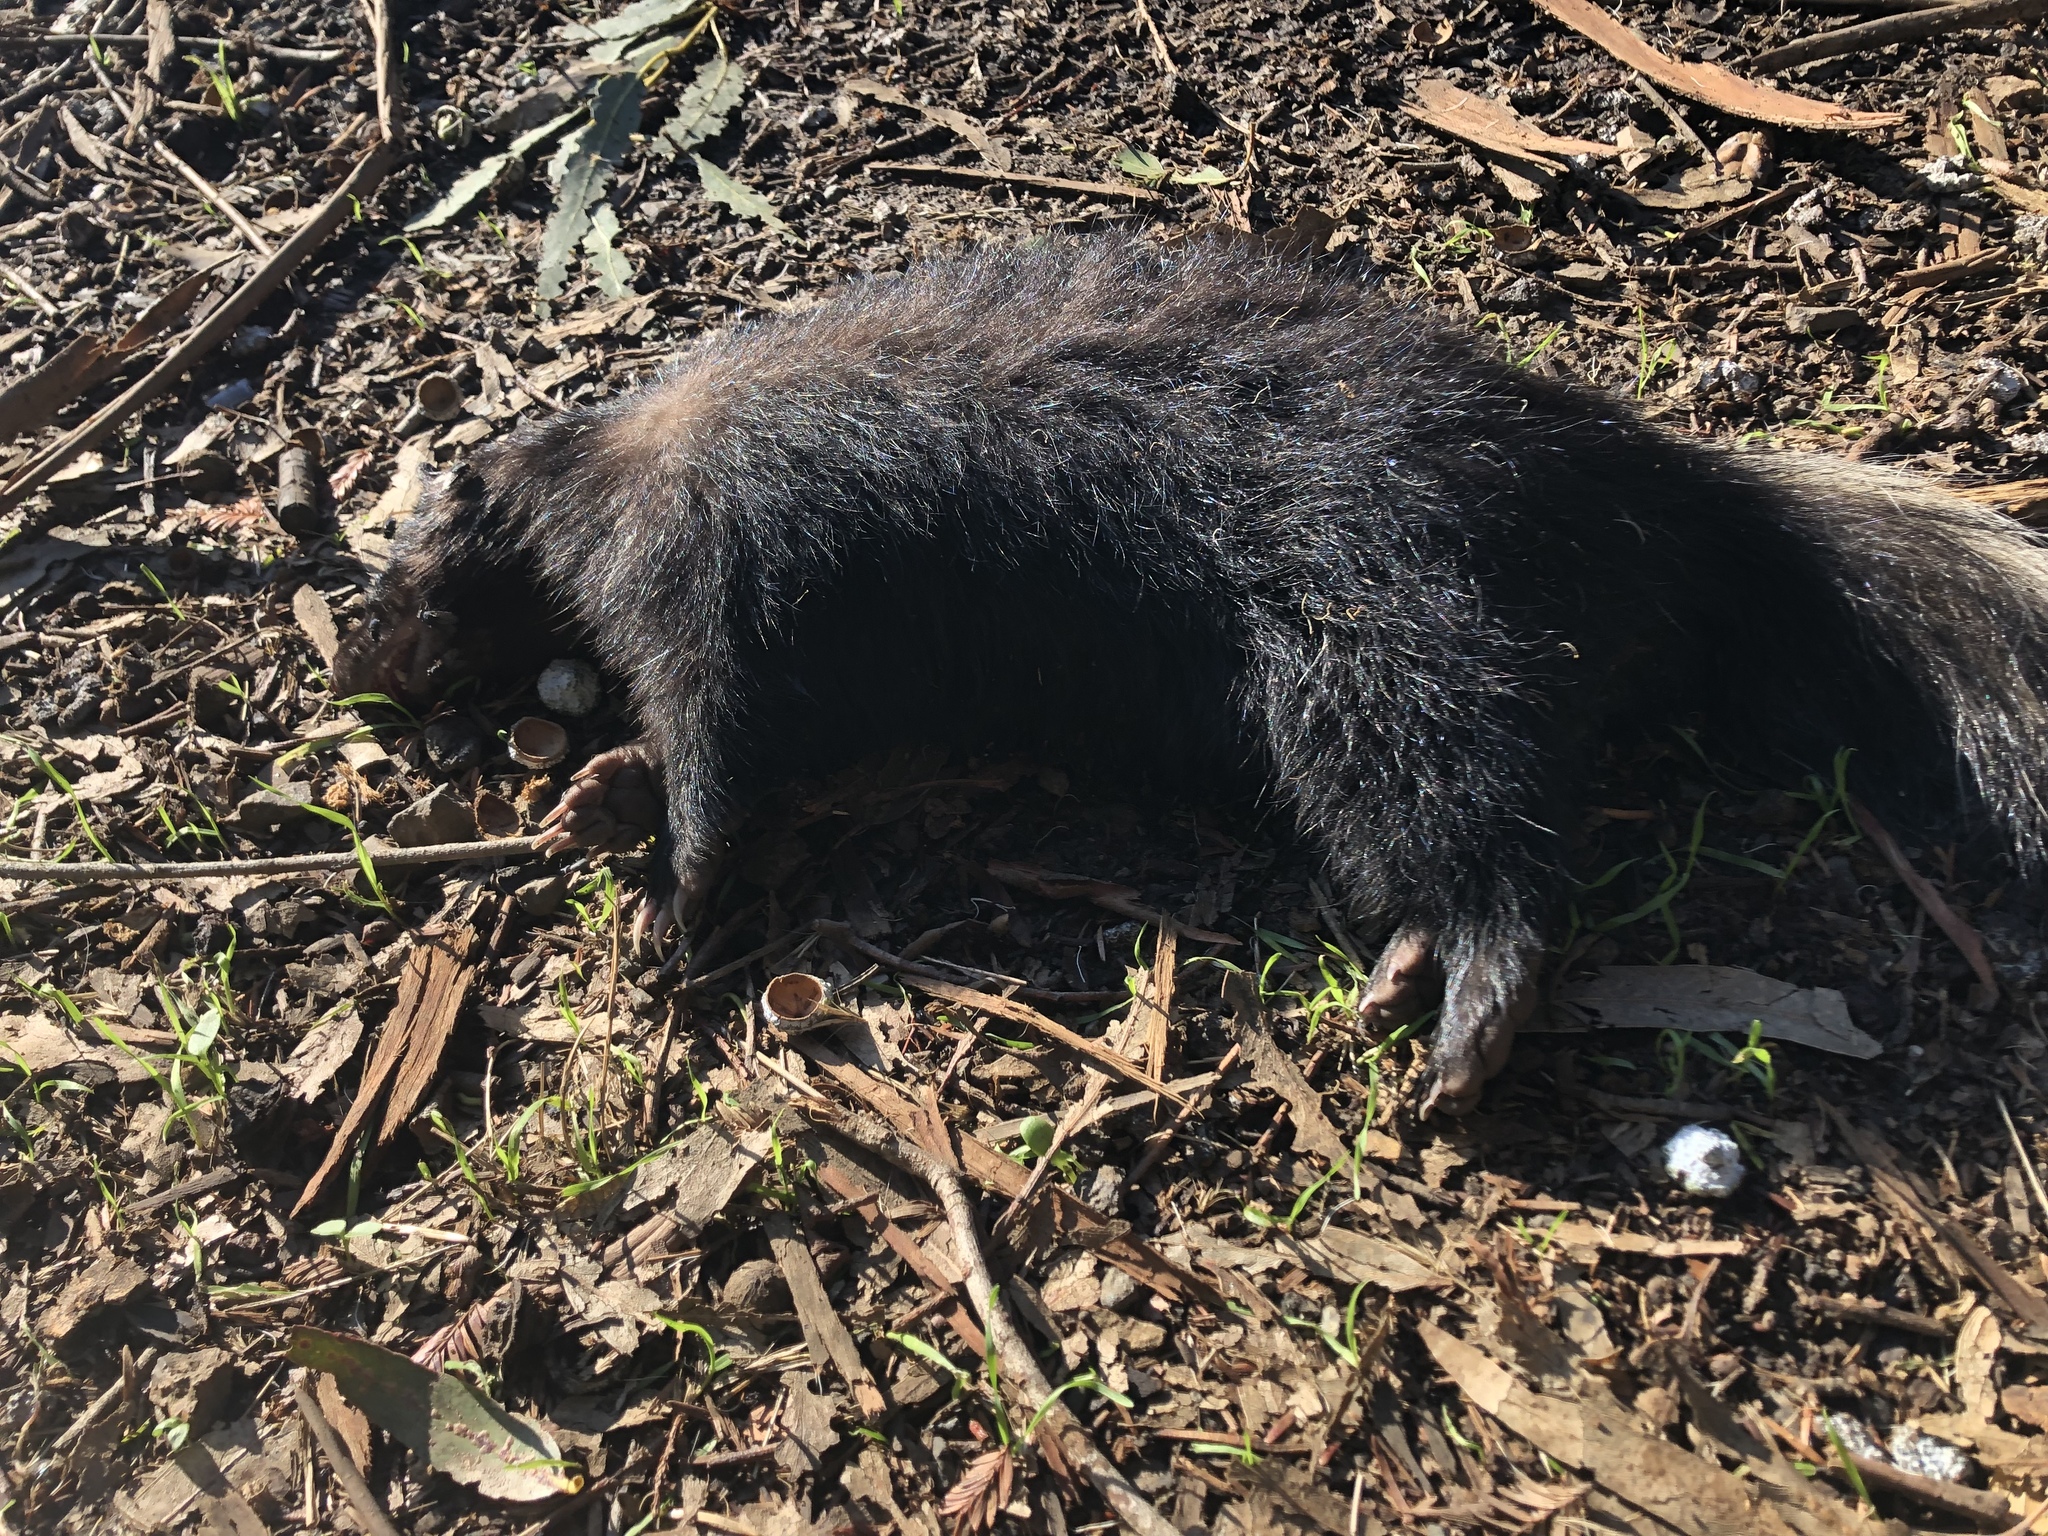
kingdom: Animalia
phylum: Chordata
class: Mammalia
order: Carnivora
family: Mephitidae
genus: Mephitis
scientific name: Mephitis mephitis
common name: Striped skunk
